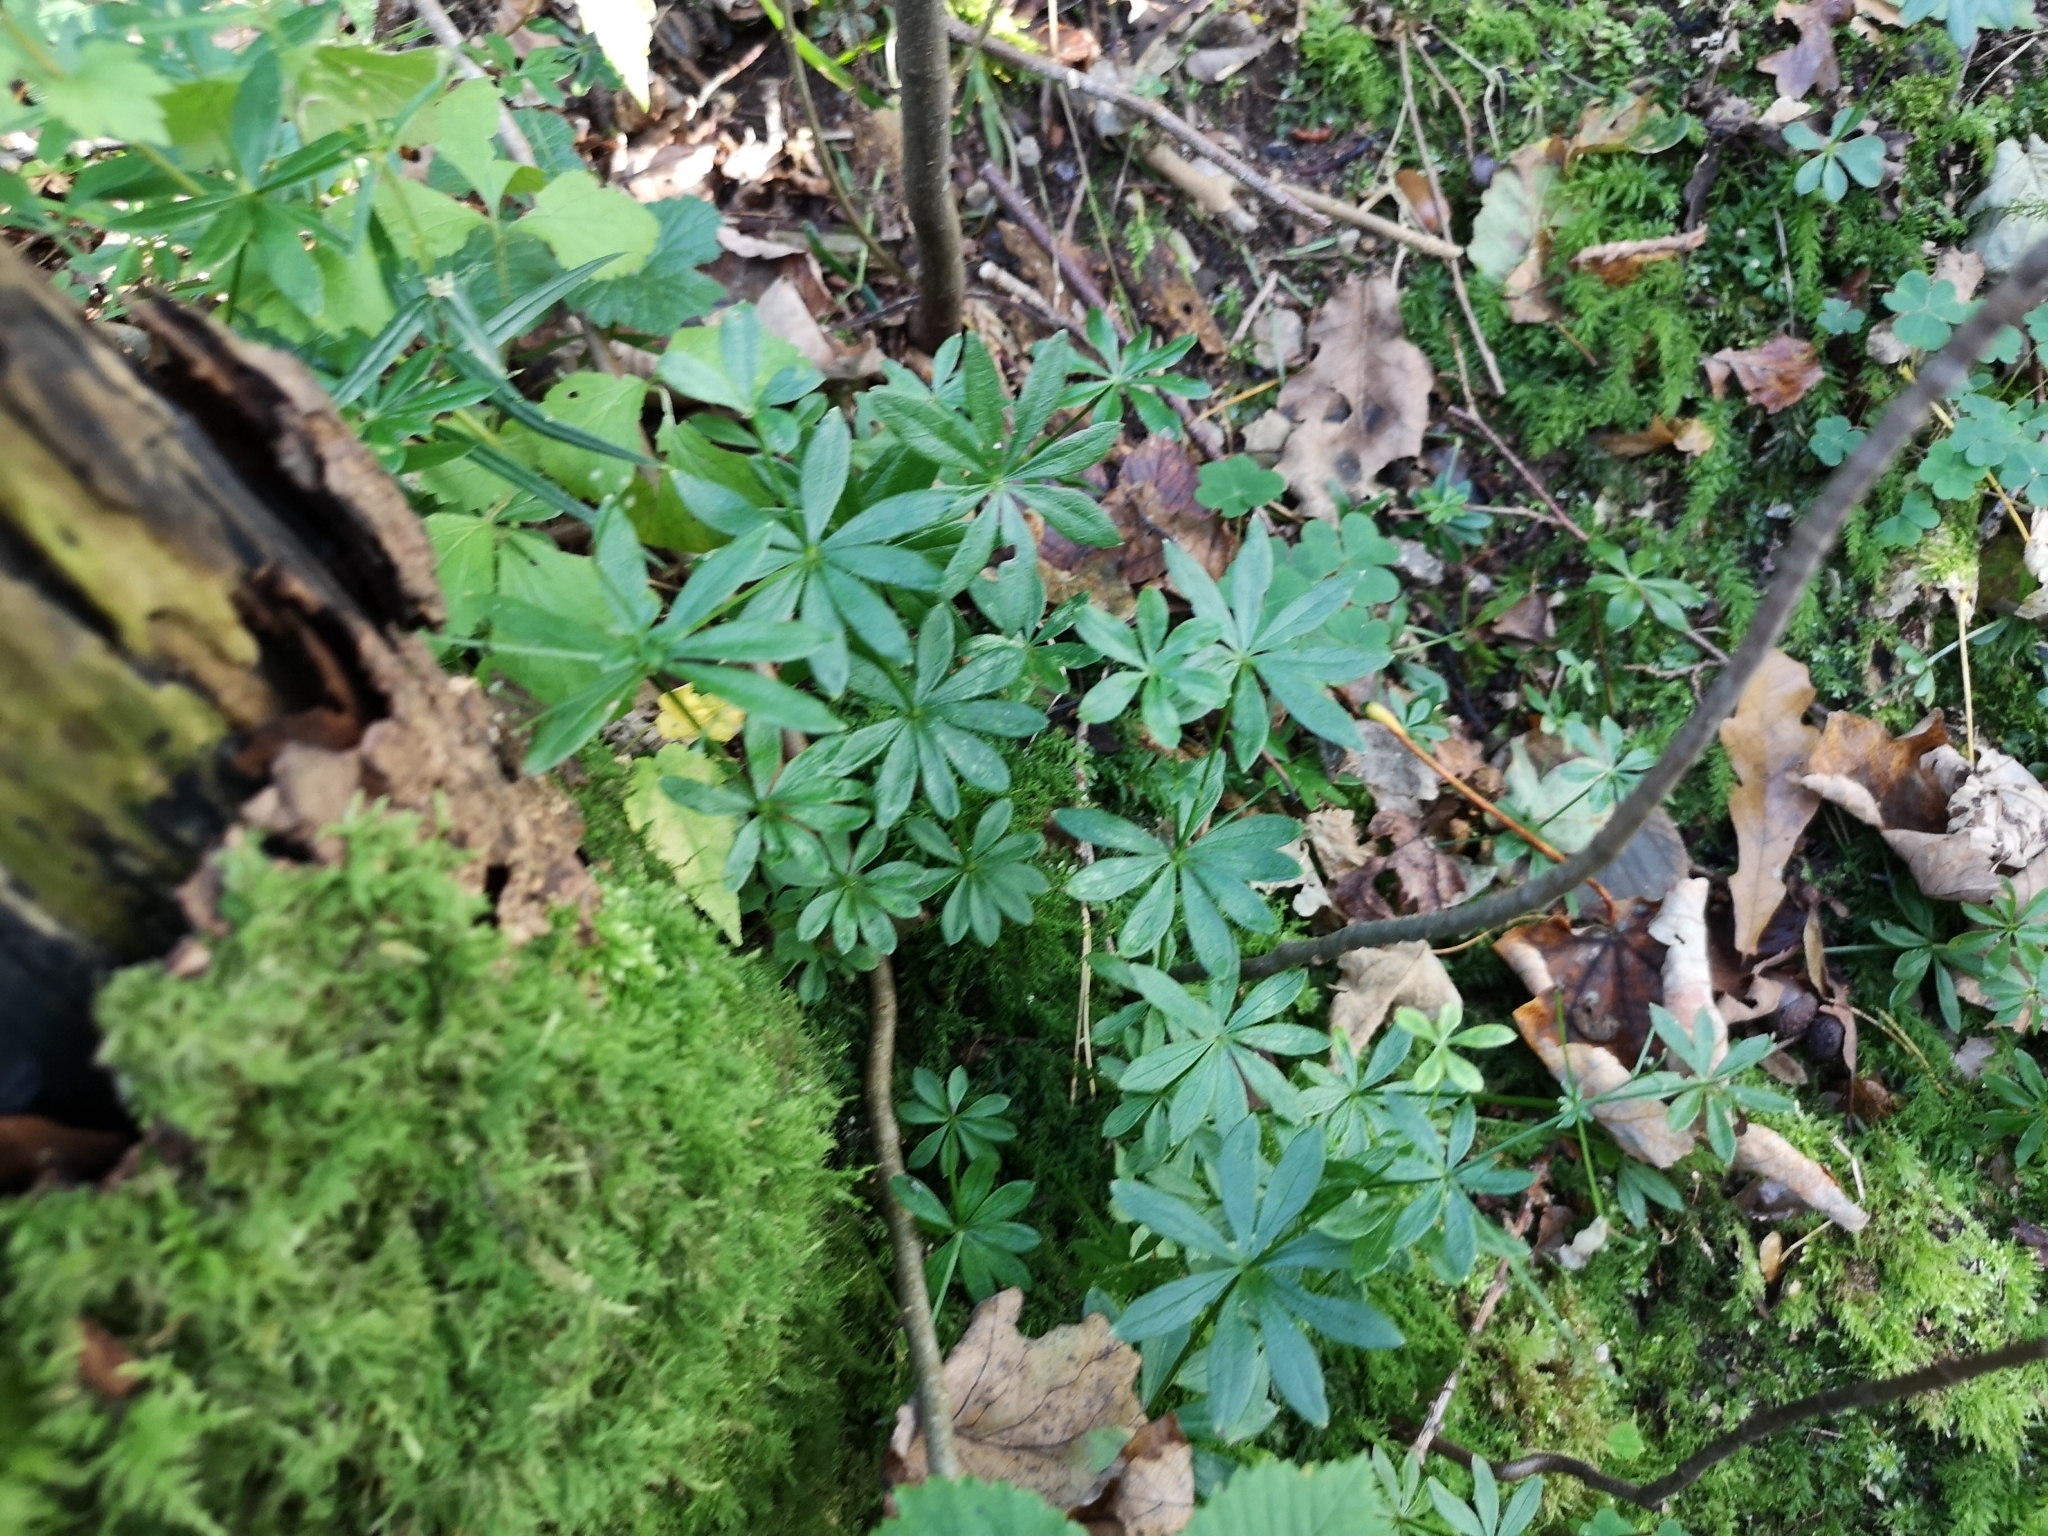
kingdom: Plantae
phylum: Tracheophyta
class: Magnoliopsida
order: Gentianales
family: Rubiaceae
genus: Galium
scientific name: Galium odoratum
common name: Sweet woodruff
